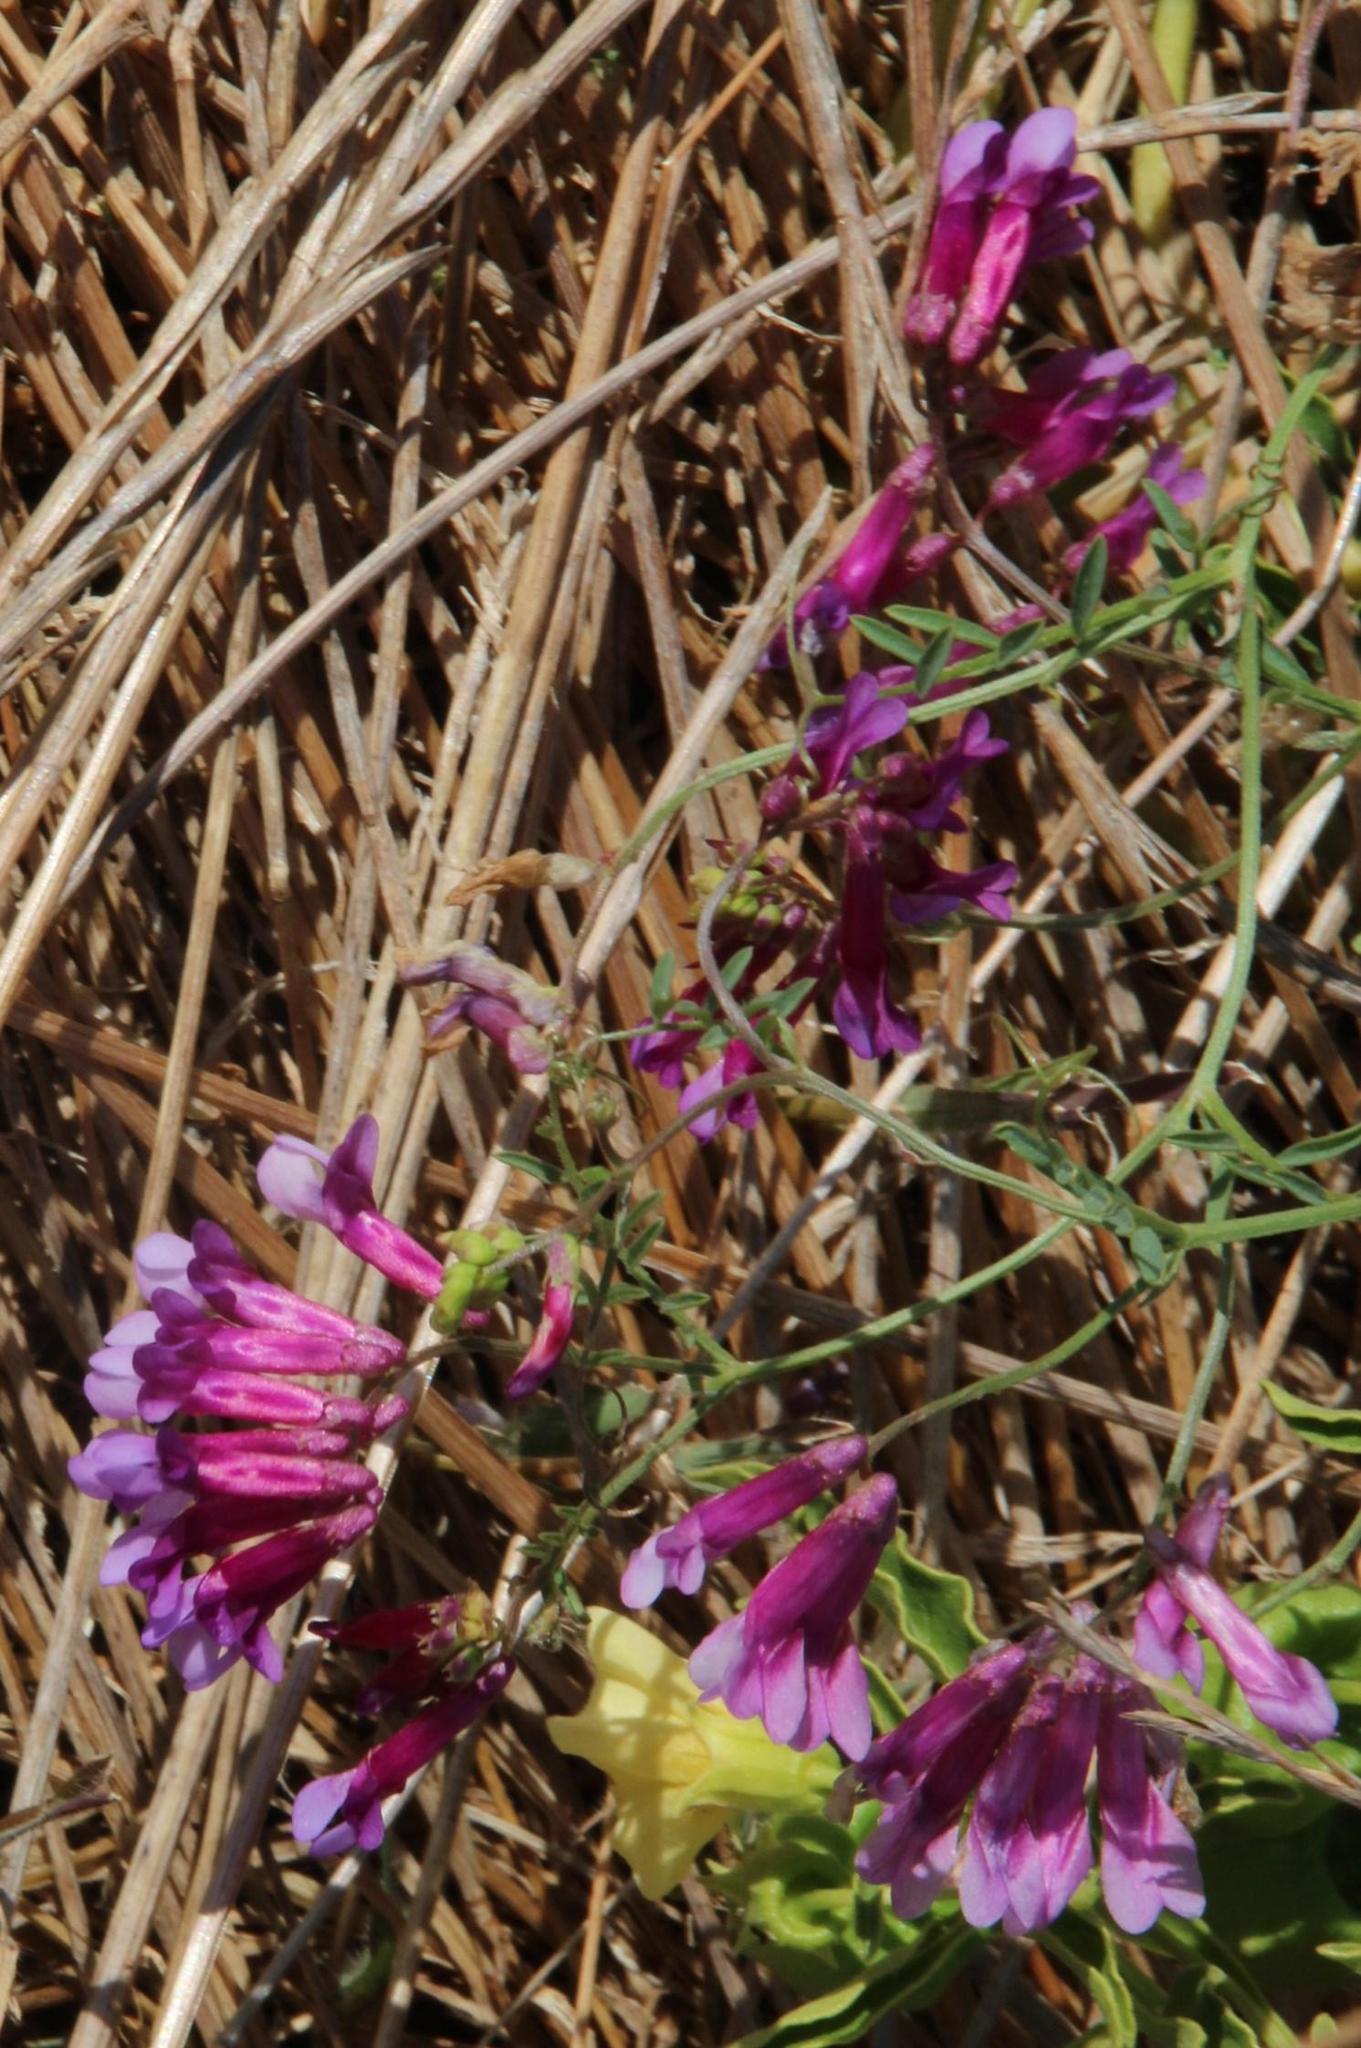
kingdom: Plantae
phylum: Tracheophyta
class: Magnoliopsida
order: Fabales
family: Fabaceae
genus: Vicia
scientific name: Vicia eriocarpa
